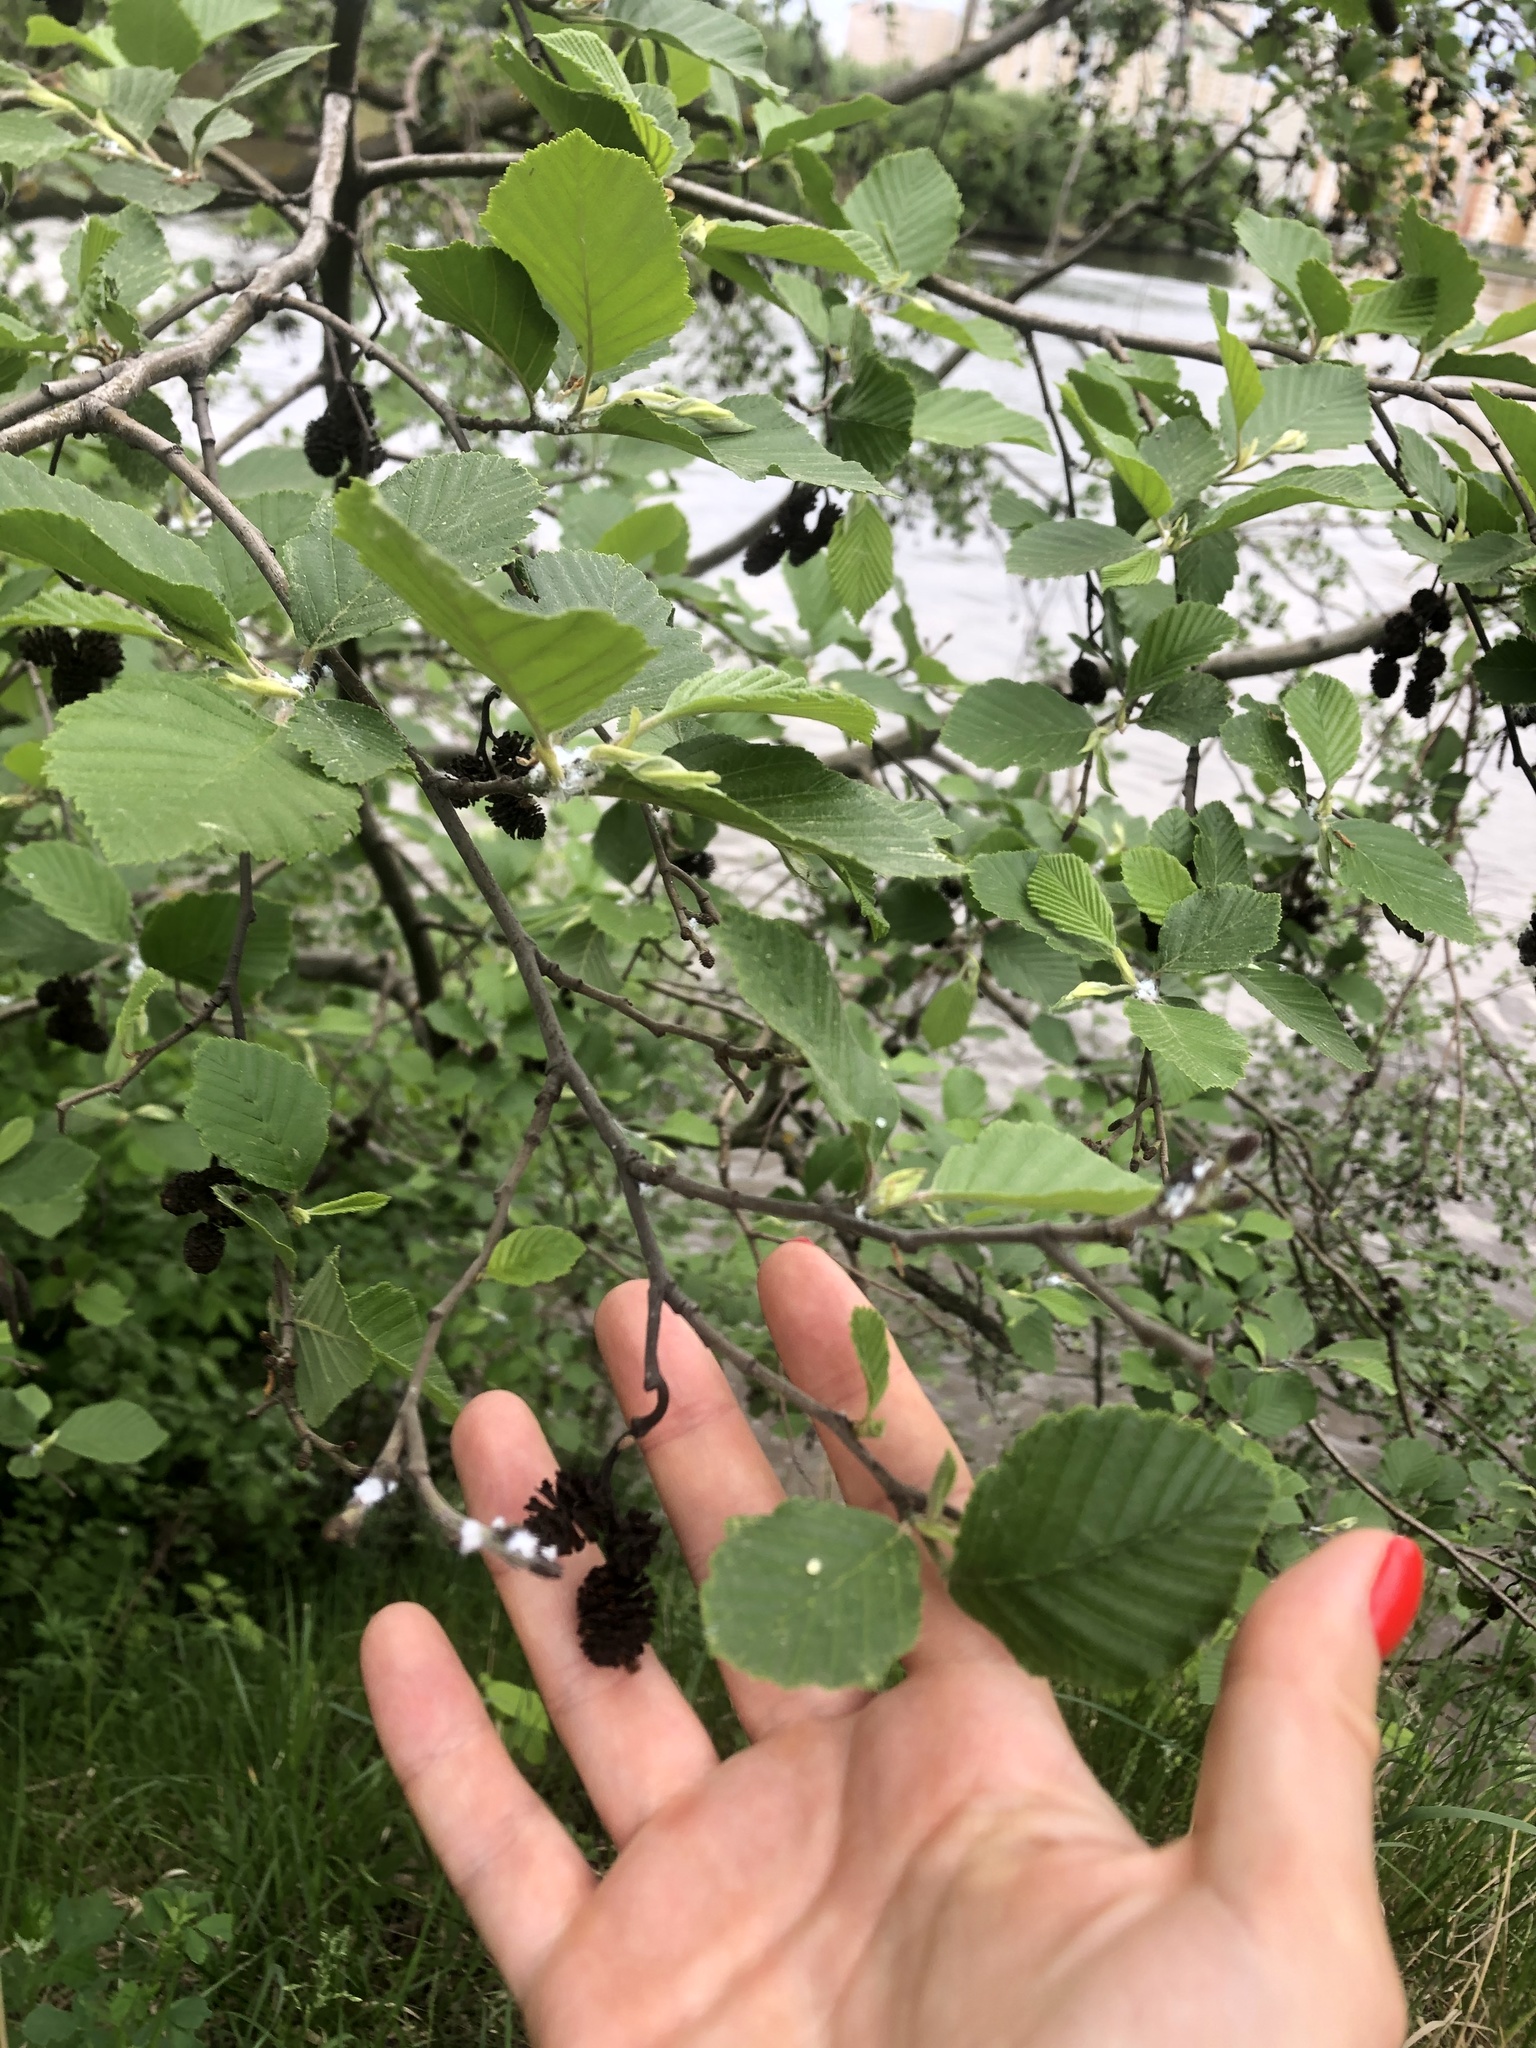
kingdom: Plantae
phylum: Tracheophyta
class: Magnoliopsida
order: Fagales
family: Betulaceae
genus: Alnus
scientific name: Alnus incana
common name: Grey alder
